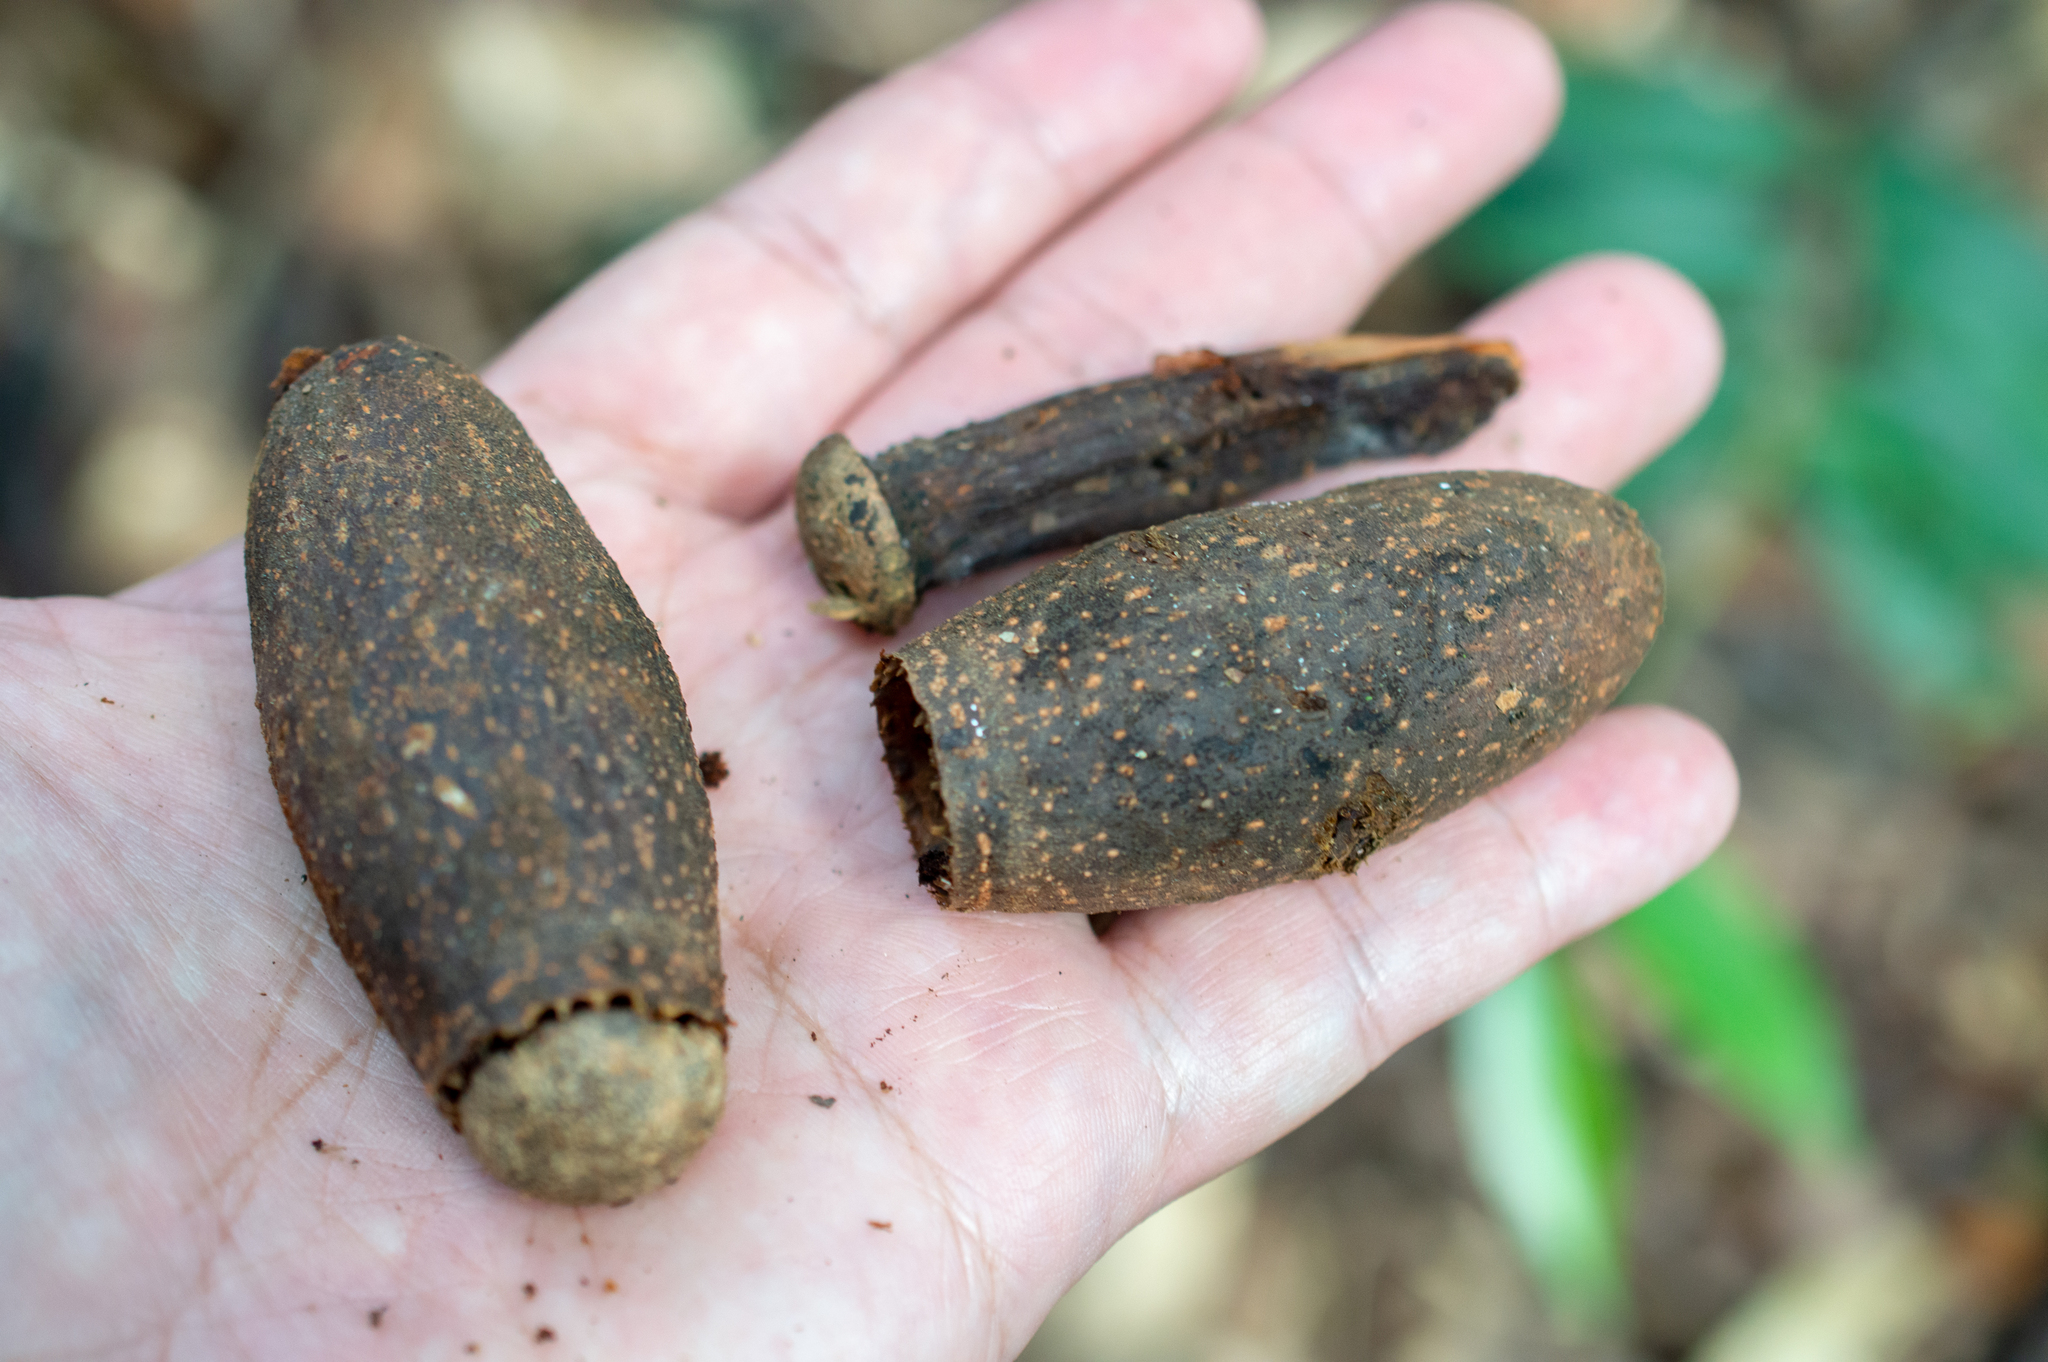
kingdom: Plantae
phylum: Tracheophyta
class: Magnoliopsida
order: Ericales
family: Lecythidaceae
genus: Cariniana
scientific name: Cariniana estrellensis
